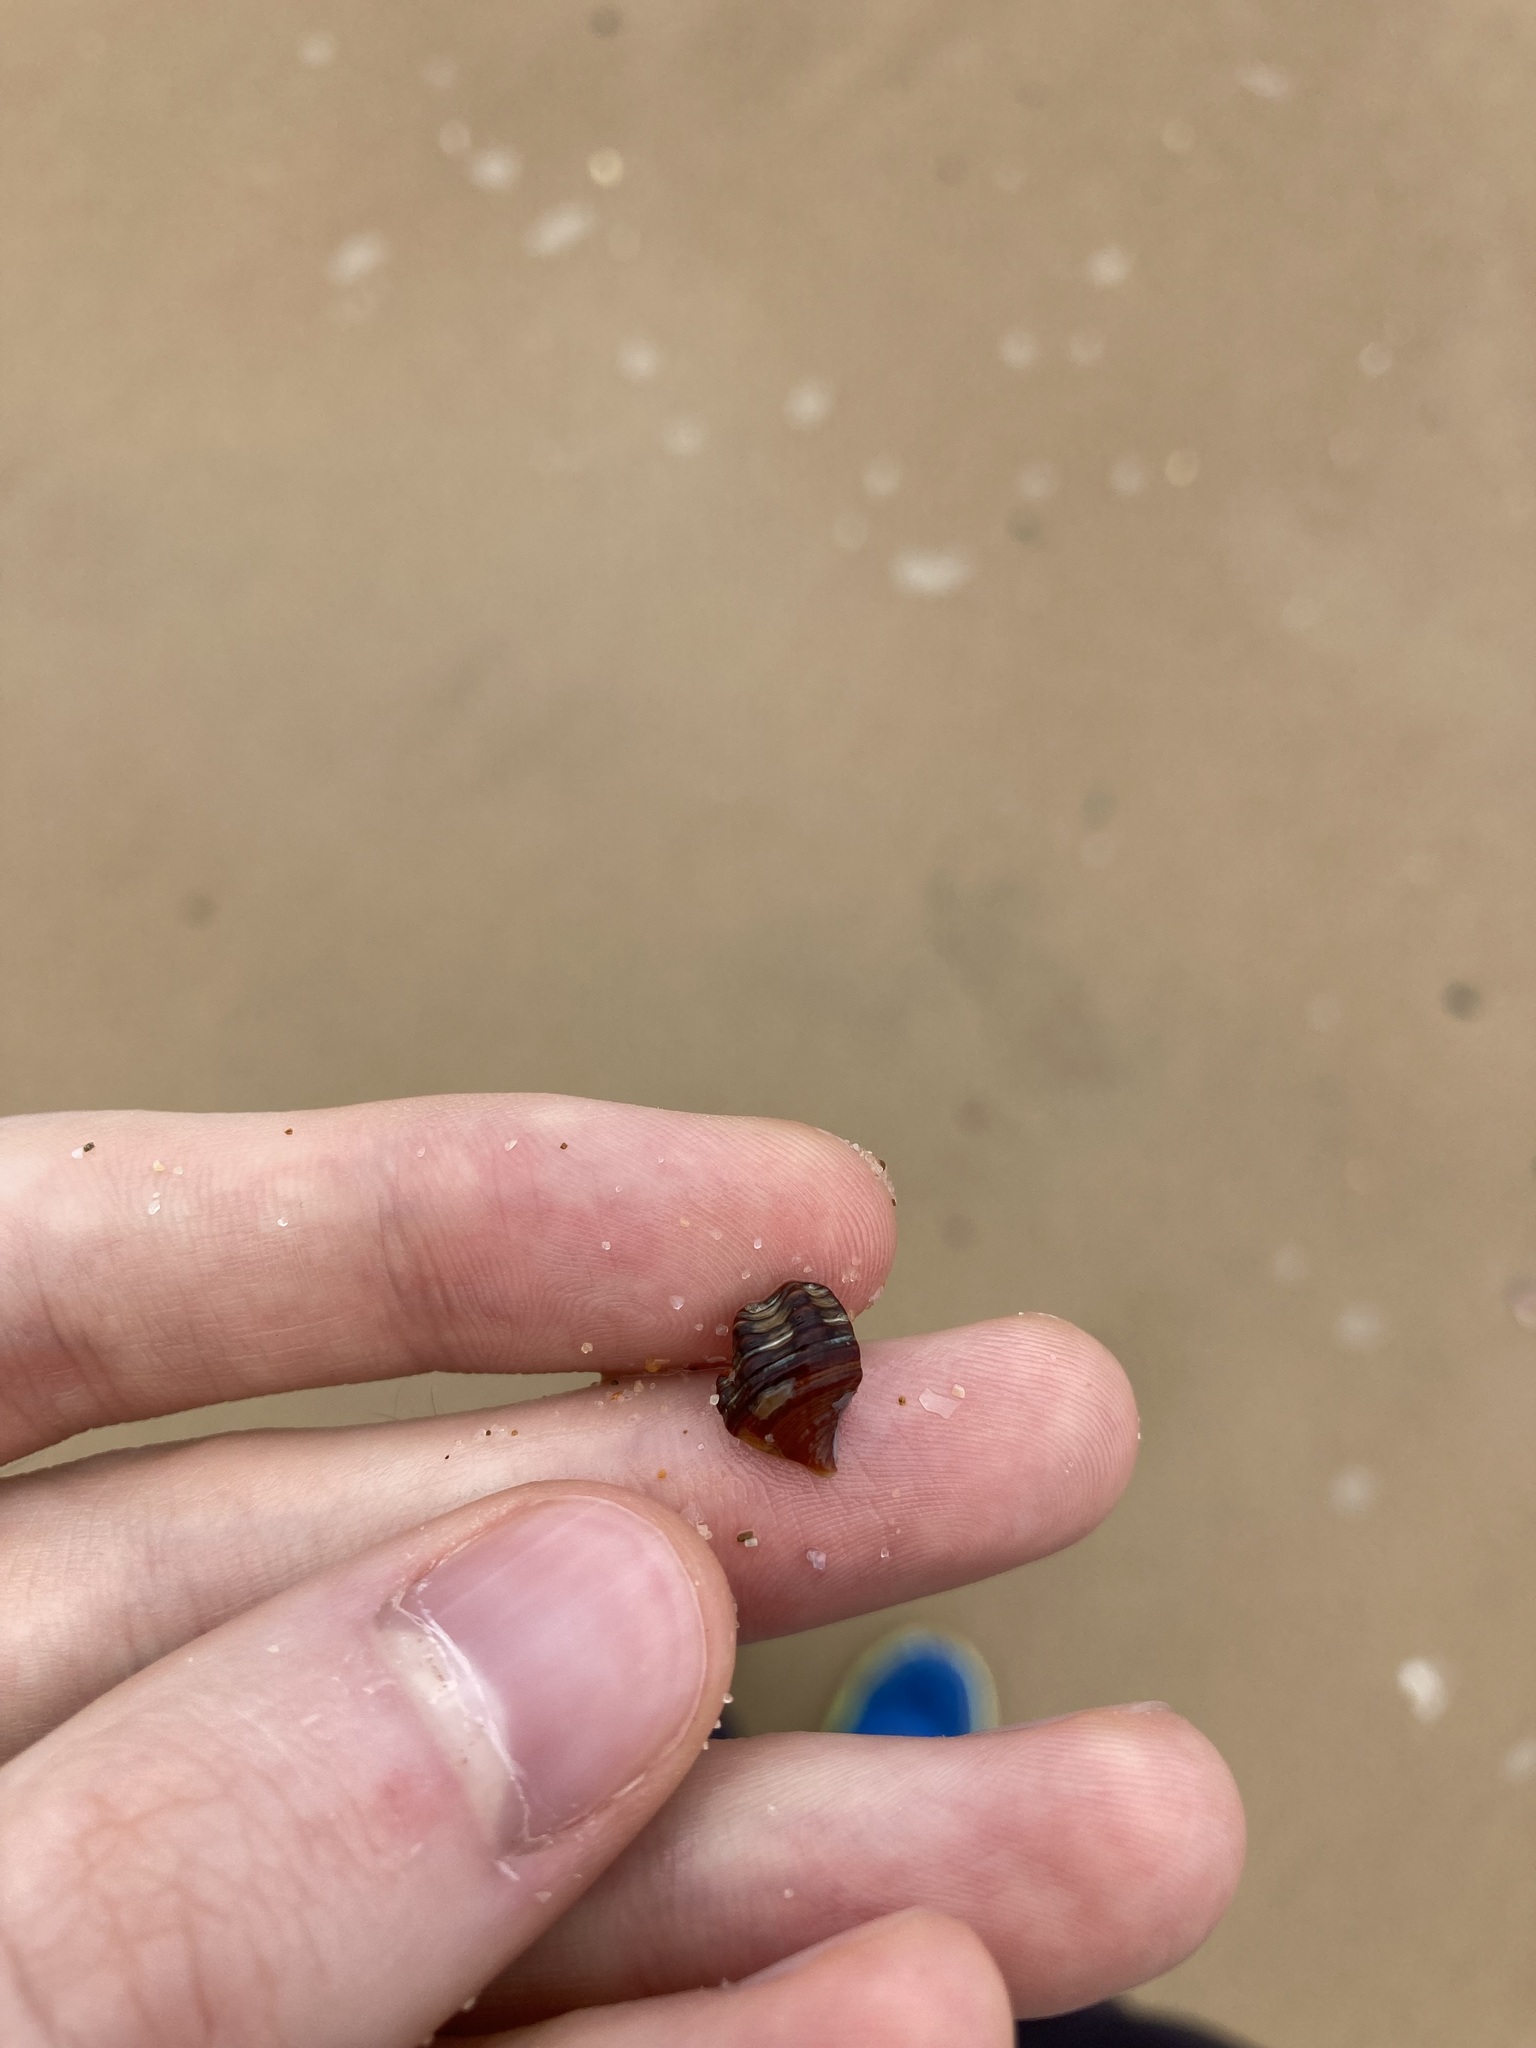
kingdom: Animalia
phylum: Mollusca
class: Gastropoda
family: Batillariidae
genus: Batillaria
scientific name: Batillaria australis
